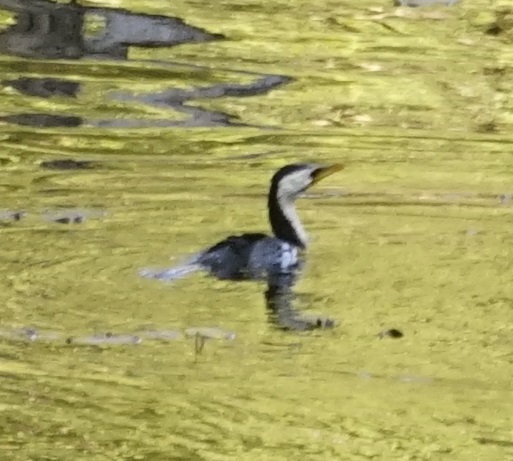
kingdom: Animalia
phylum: Chordata
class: Aves
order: Suliformes
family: Phalacrocoracidae
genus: Microcarbo
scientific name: Microcarbo melanoleucos
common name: Little pied cormorant
